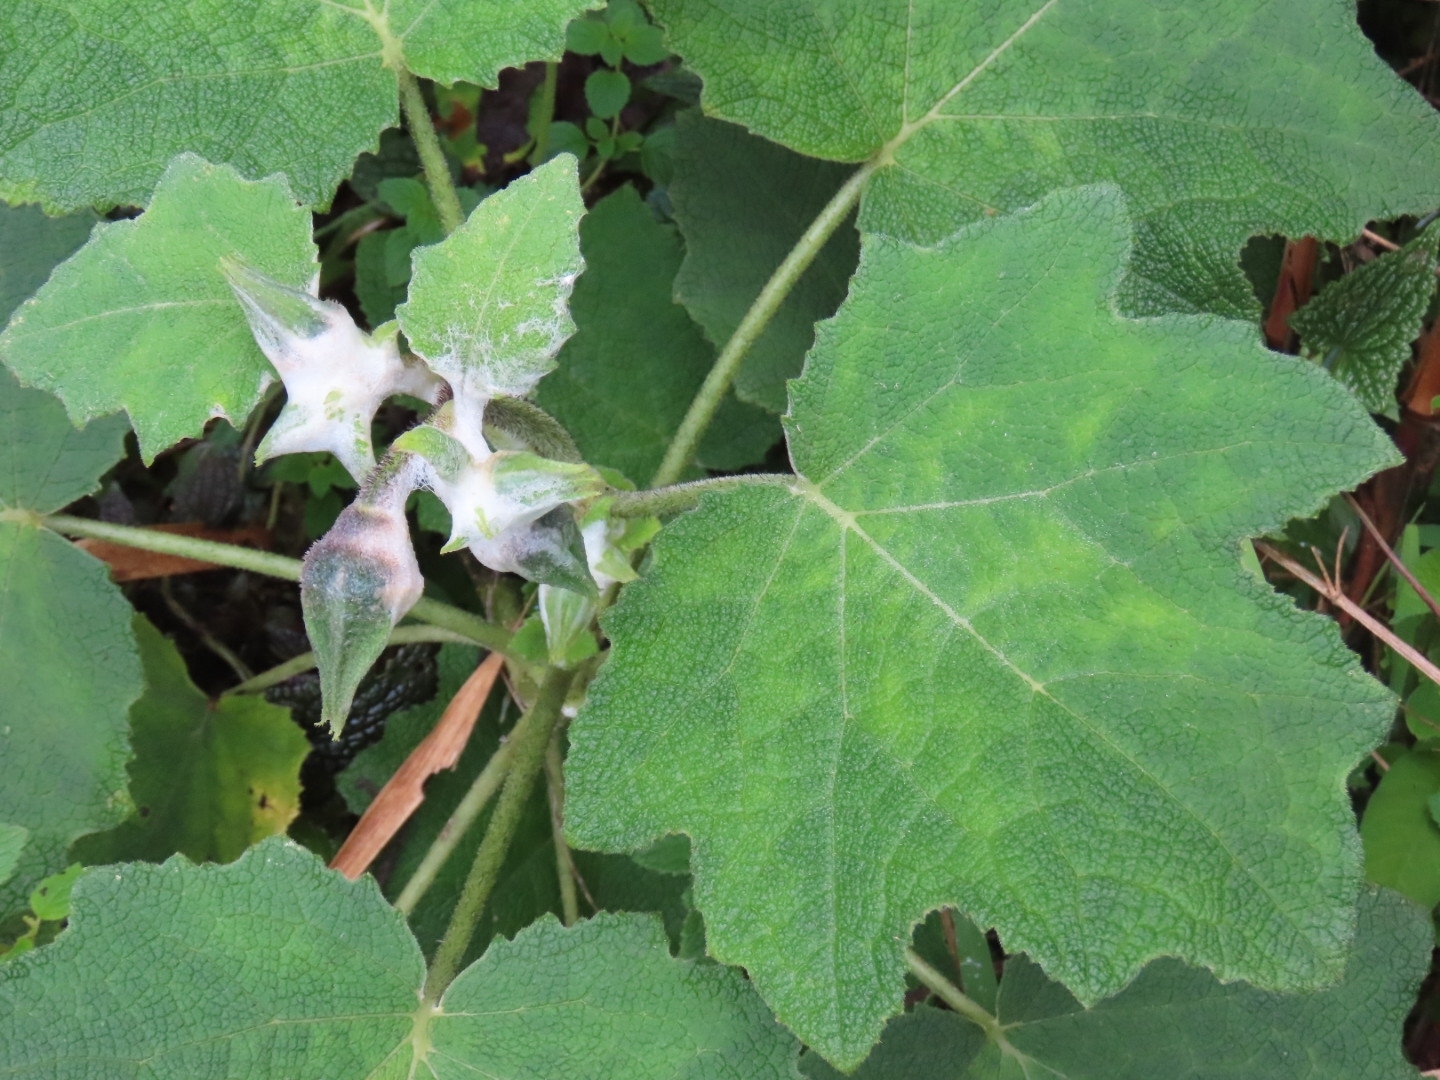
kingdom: Plantae
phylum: Tracheophyta
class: Magnoliopsida
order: Cornales
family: Loasaceae
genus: Nasa
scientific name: Nasa weberbaueri
